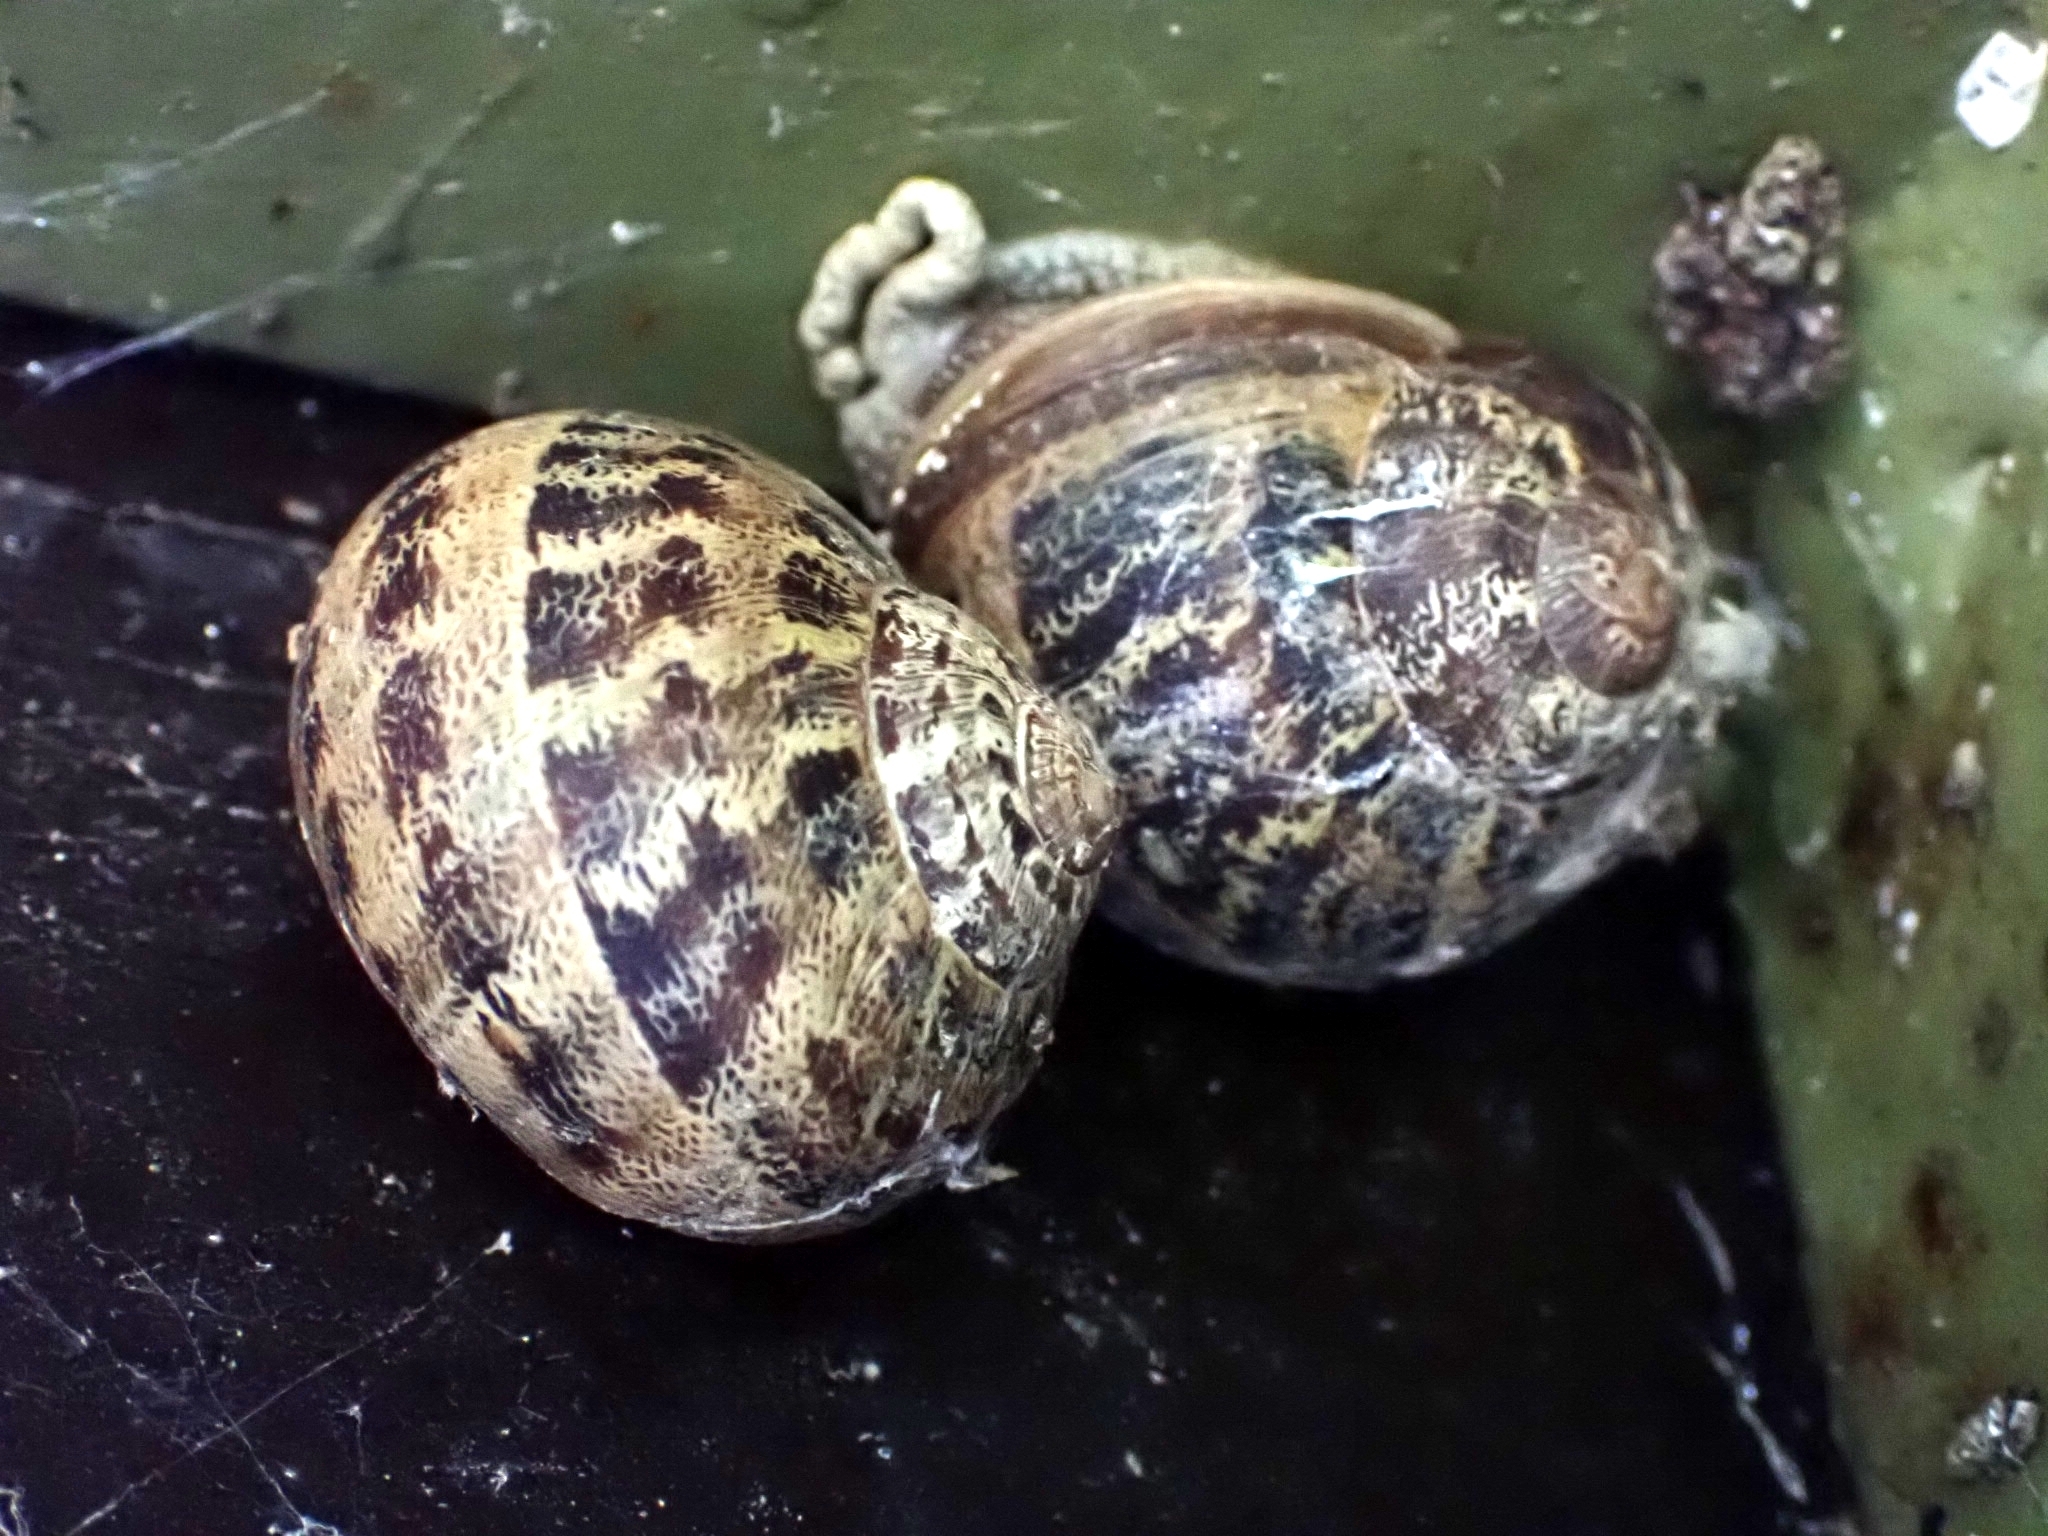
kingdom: Animalia
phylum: Mollusca
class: Gastropoda
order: Stylommatophora
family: Helicidae
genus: Cornu
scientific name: Cornu aspersum
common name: Brown garden snail
